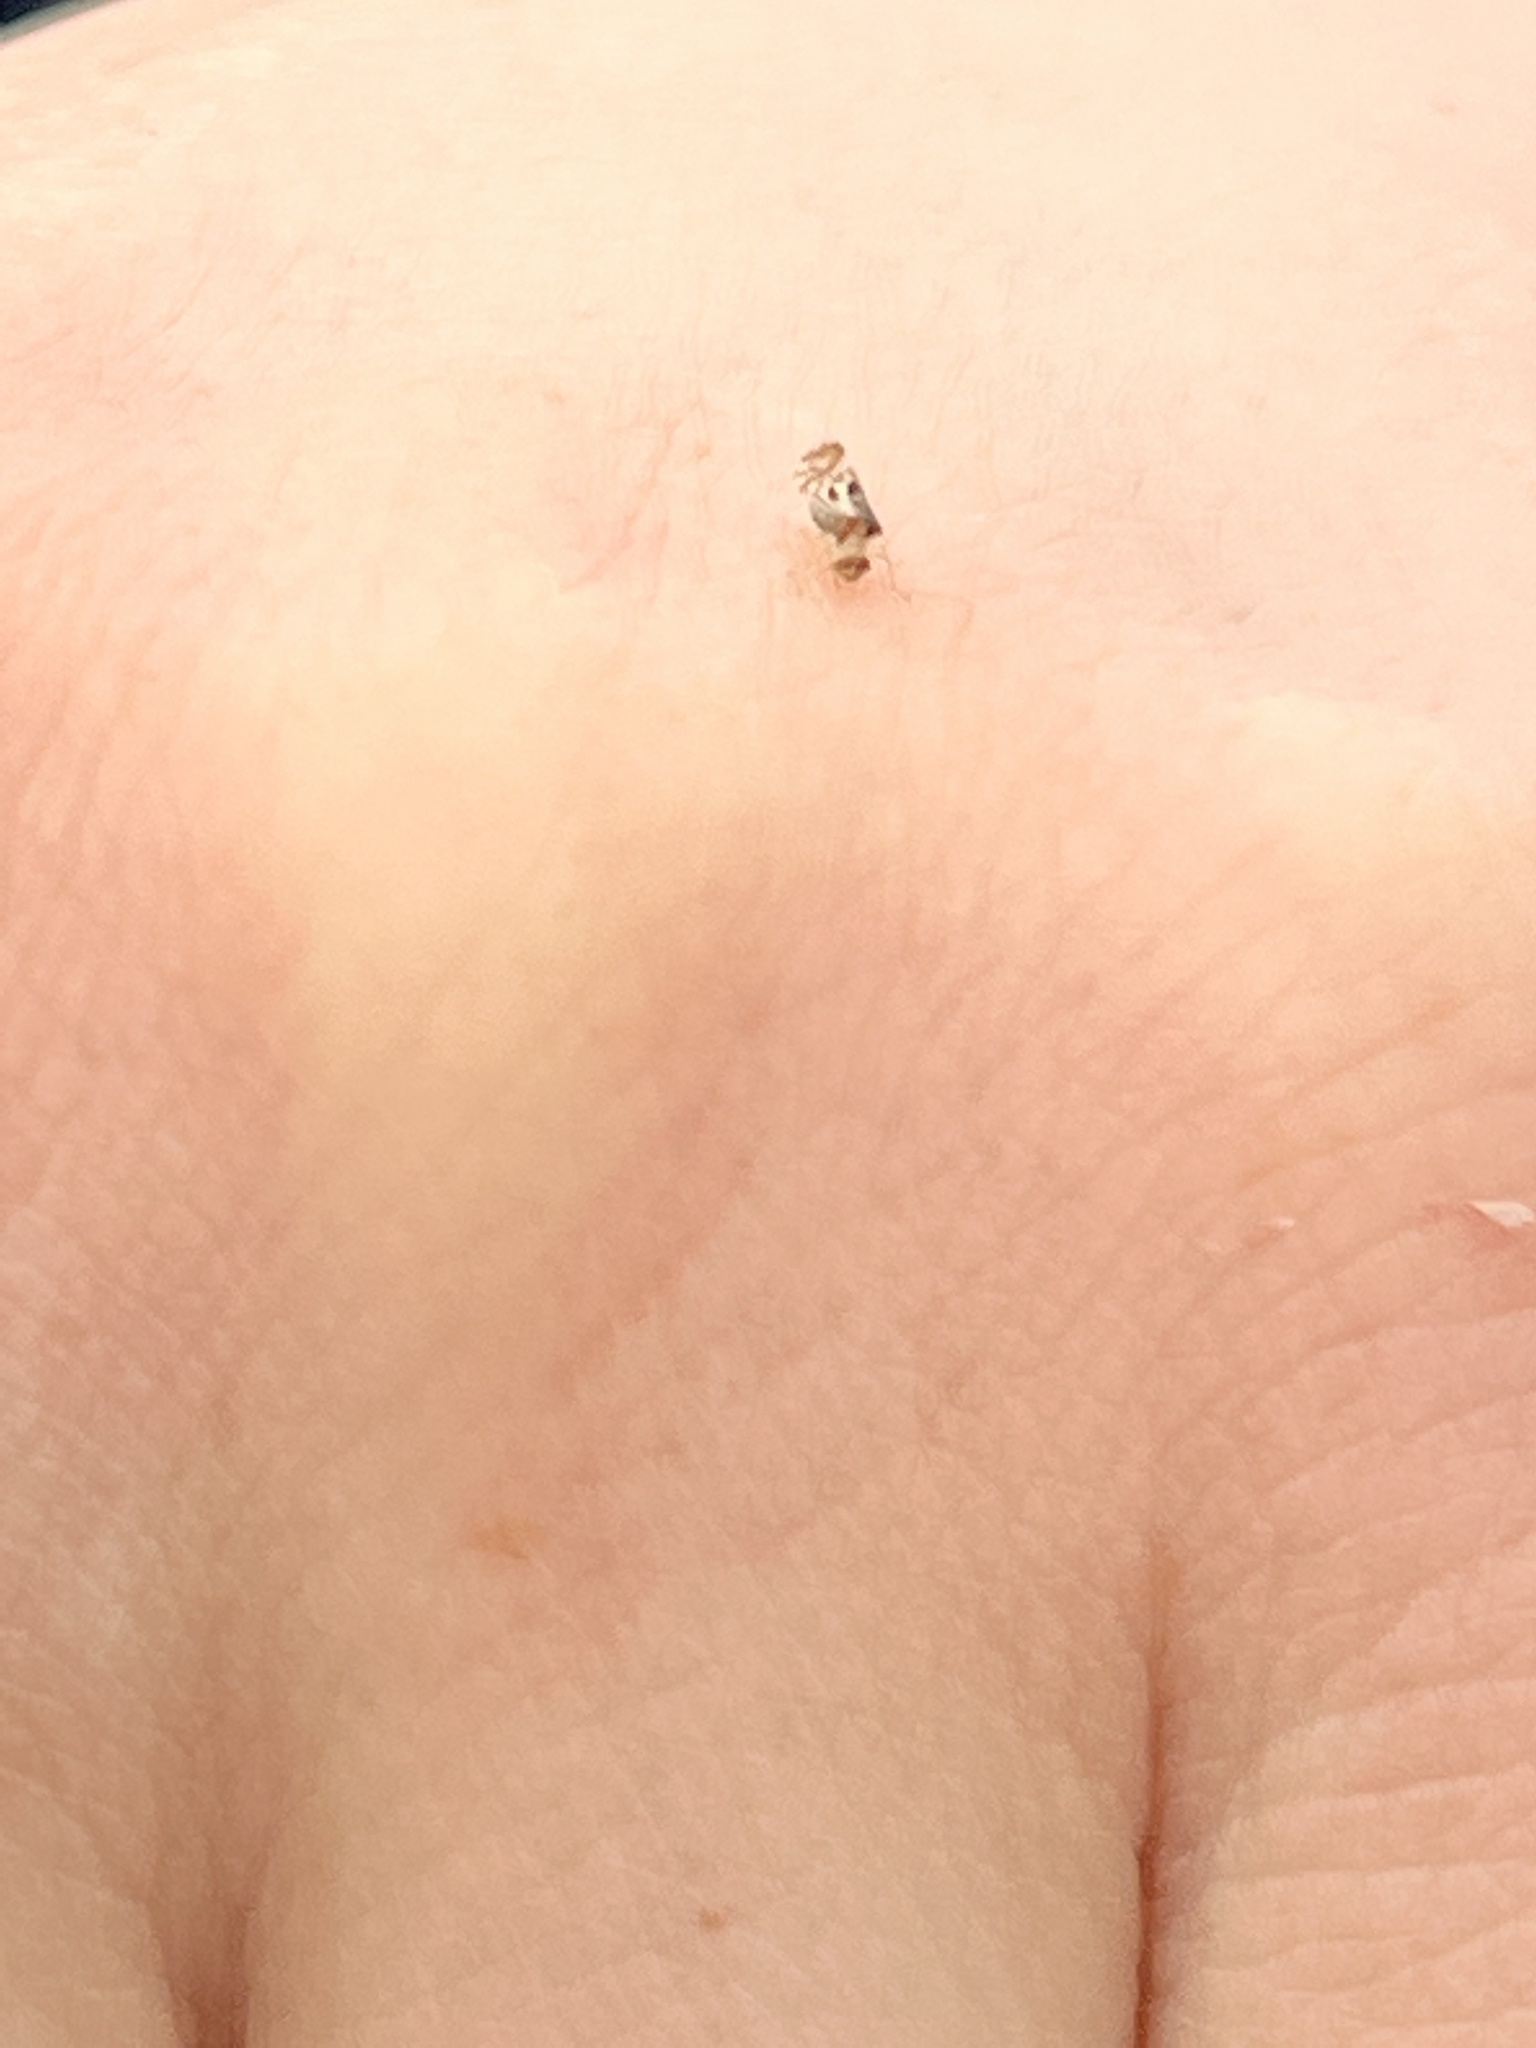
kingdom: Animalia
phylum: Arthropoda
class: Insecta
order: Psocodea
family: Stenopsocidae
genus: Graphopsocus
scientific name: Graphopsocus cruciatus
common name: Lizard bark louse
